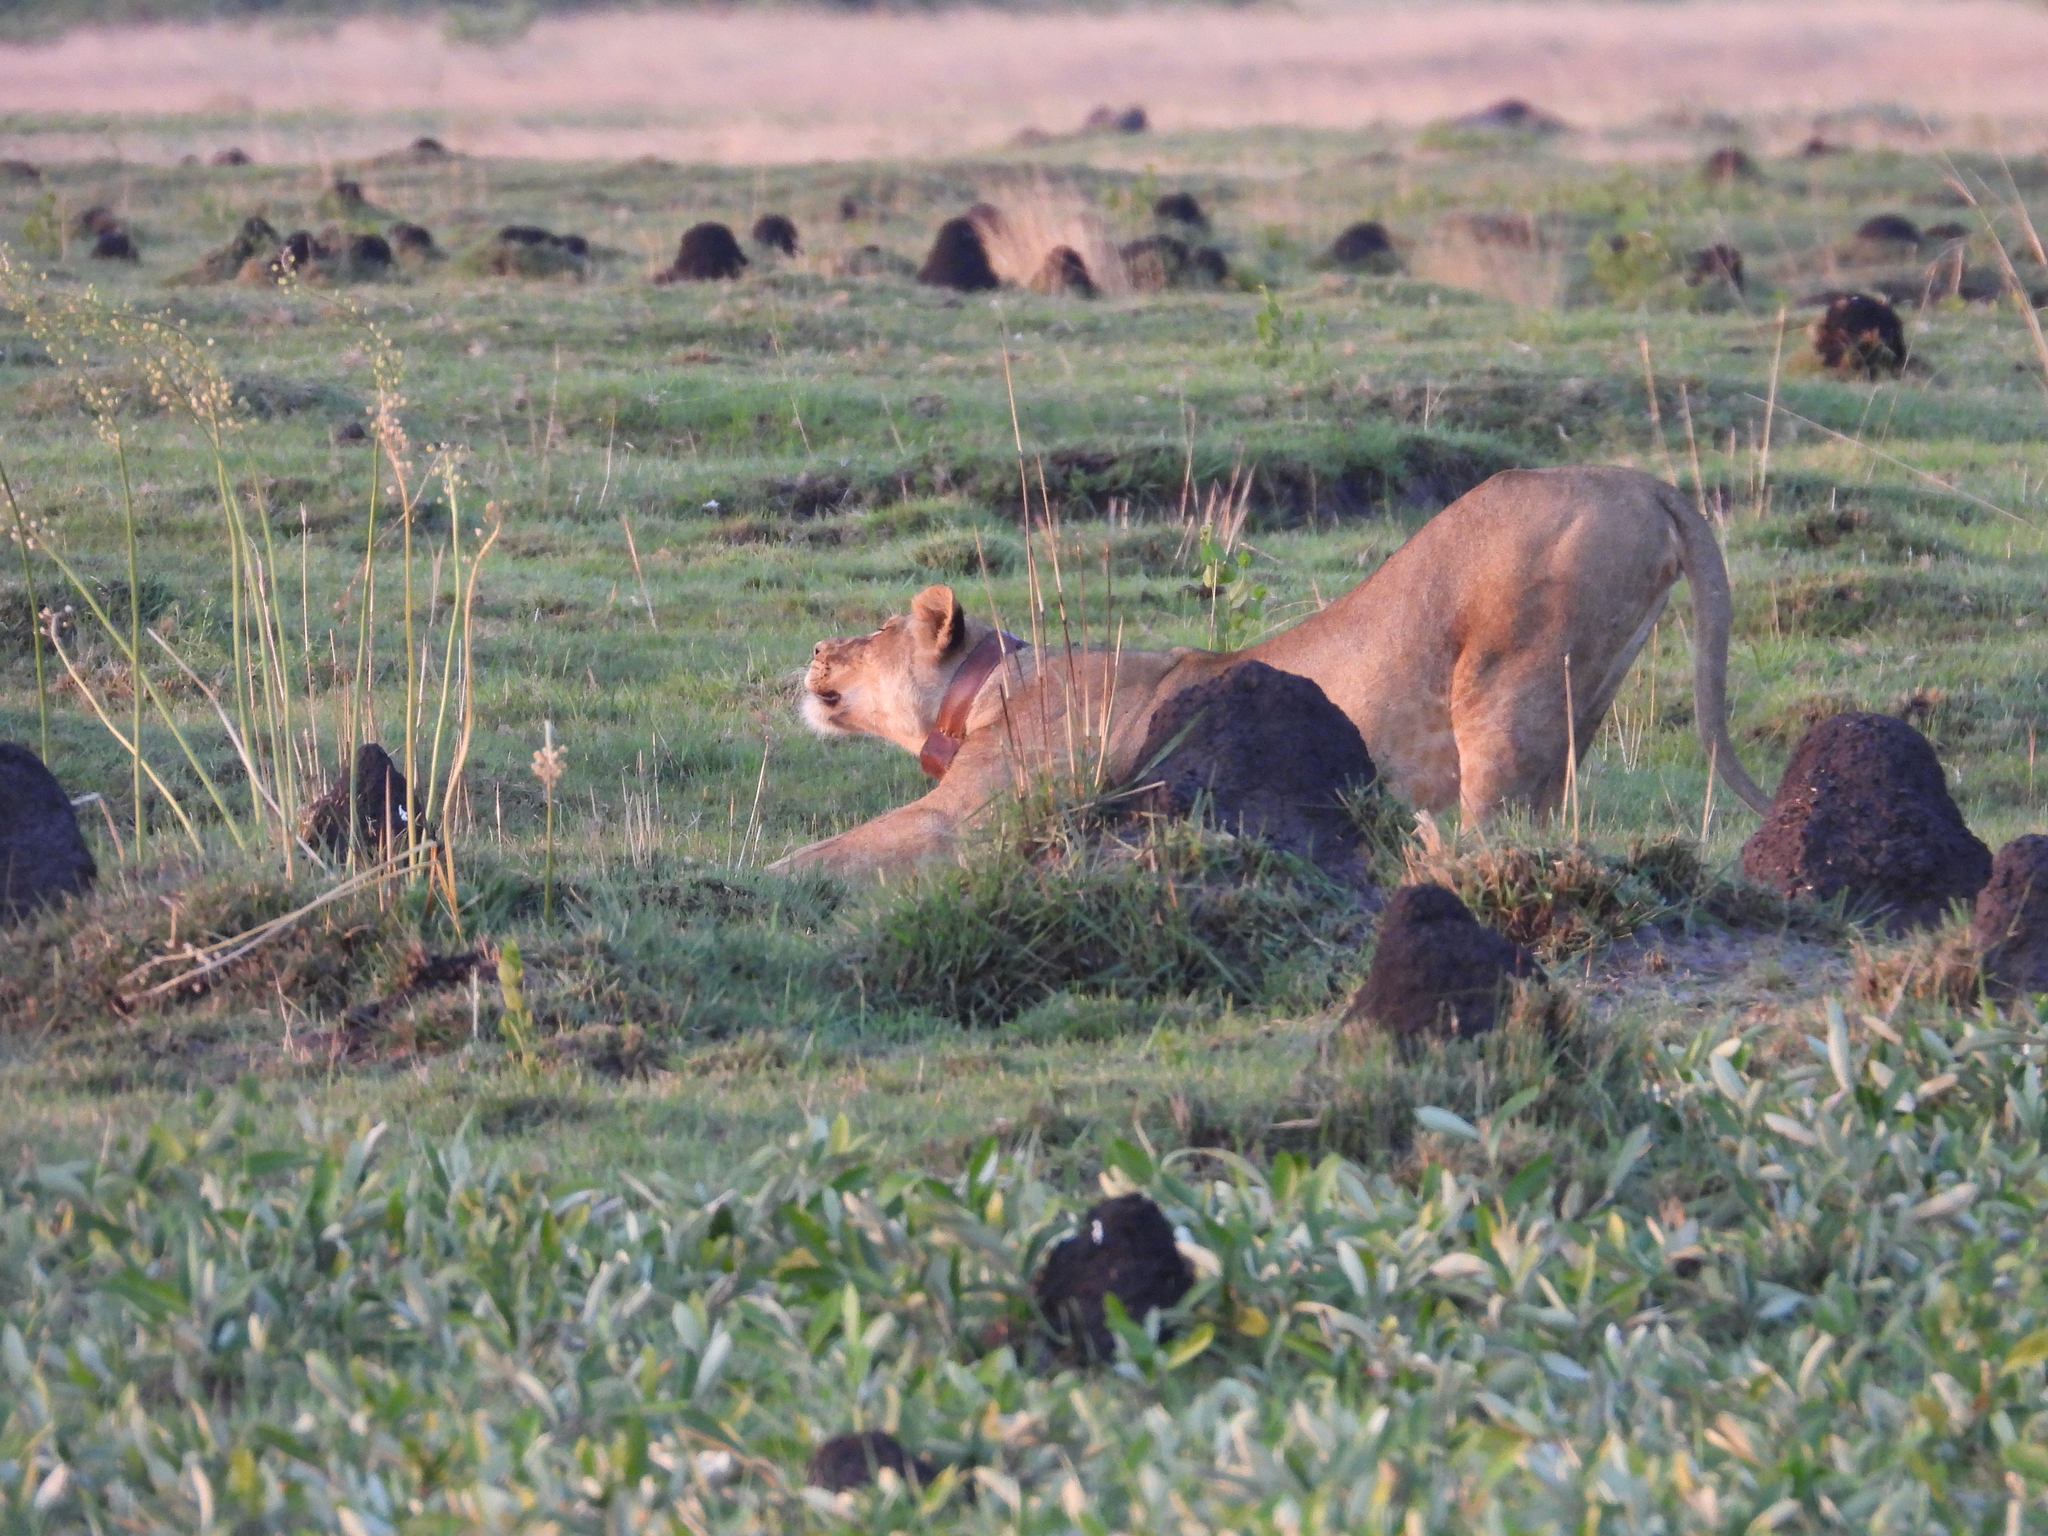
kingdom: Animalia
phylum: Chordata
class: Mammalia
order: Carnivora
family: Felidae
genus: Panthera
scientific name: Panthera leo
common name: Lion
